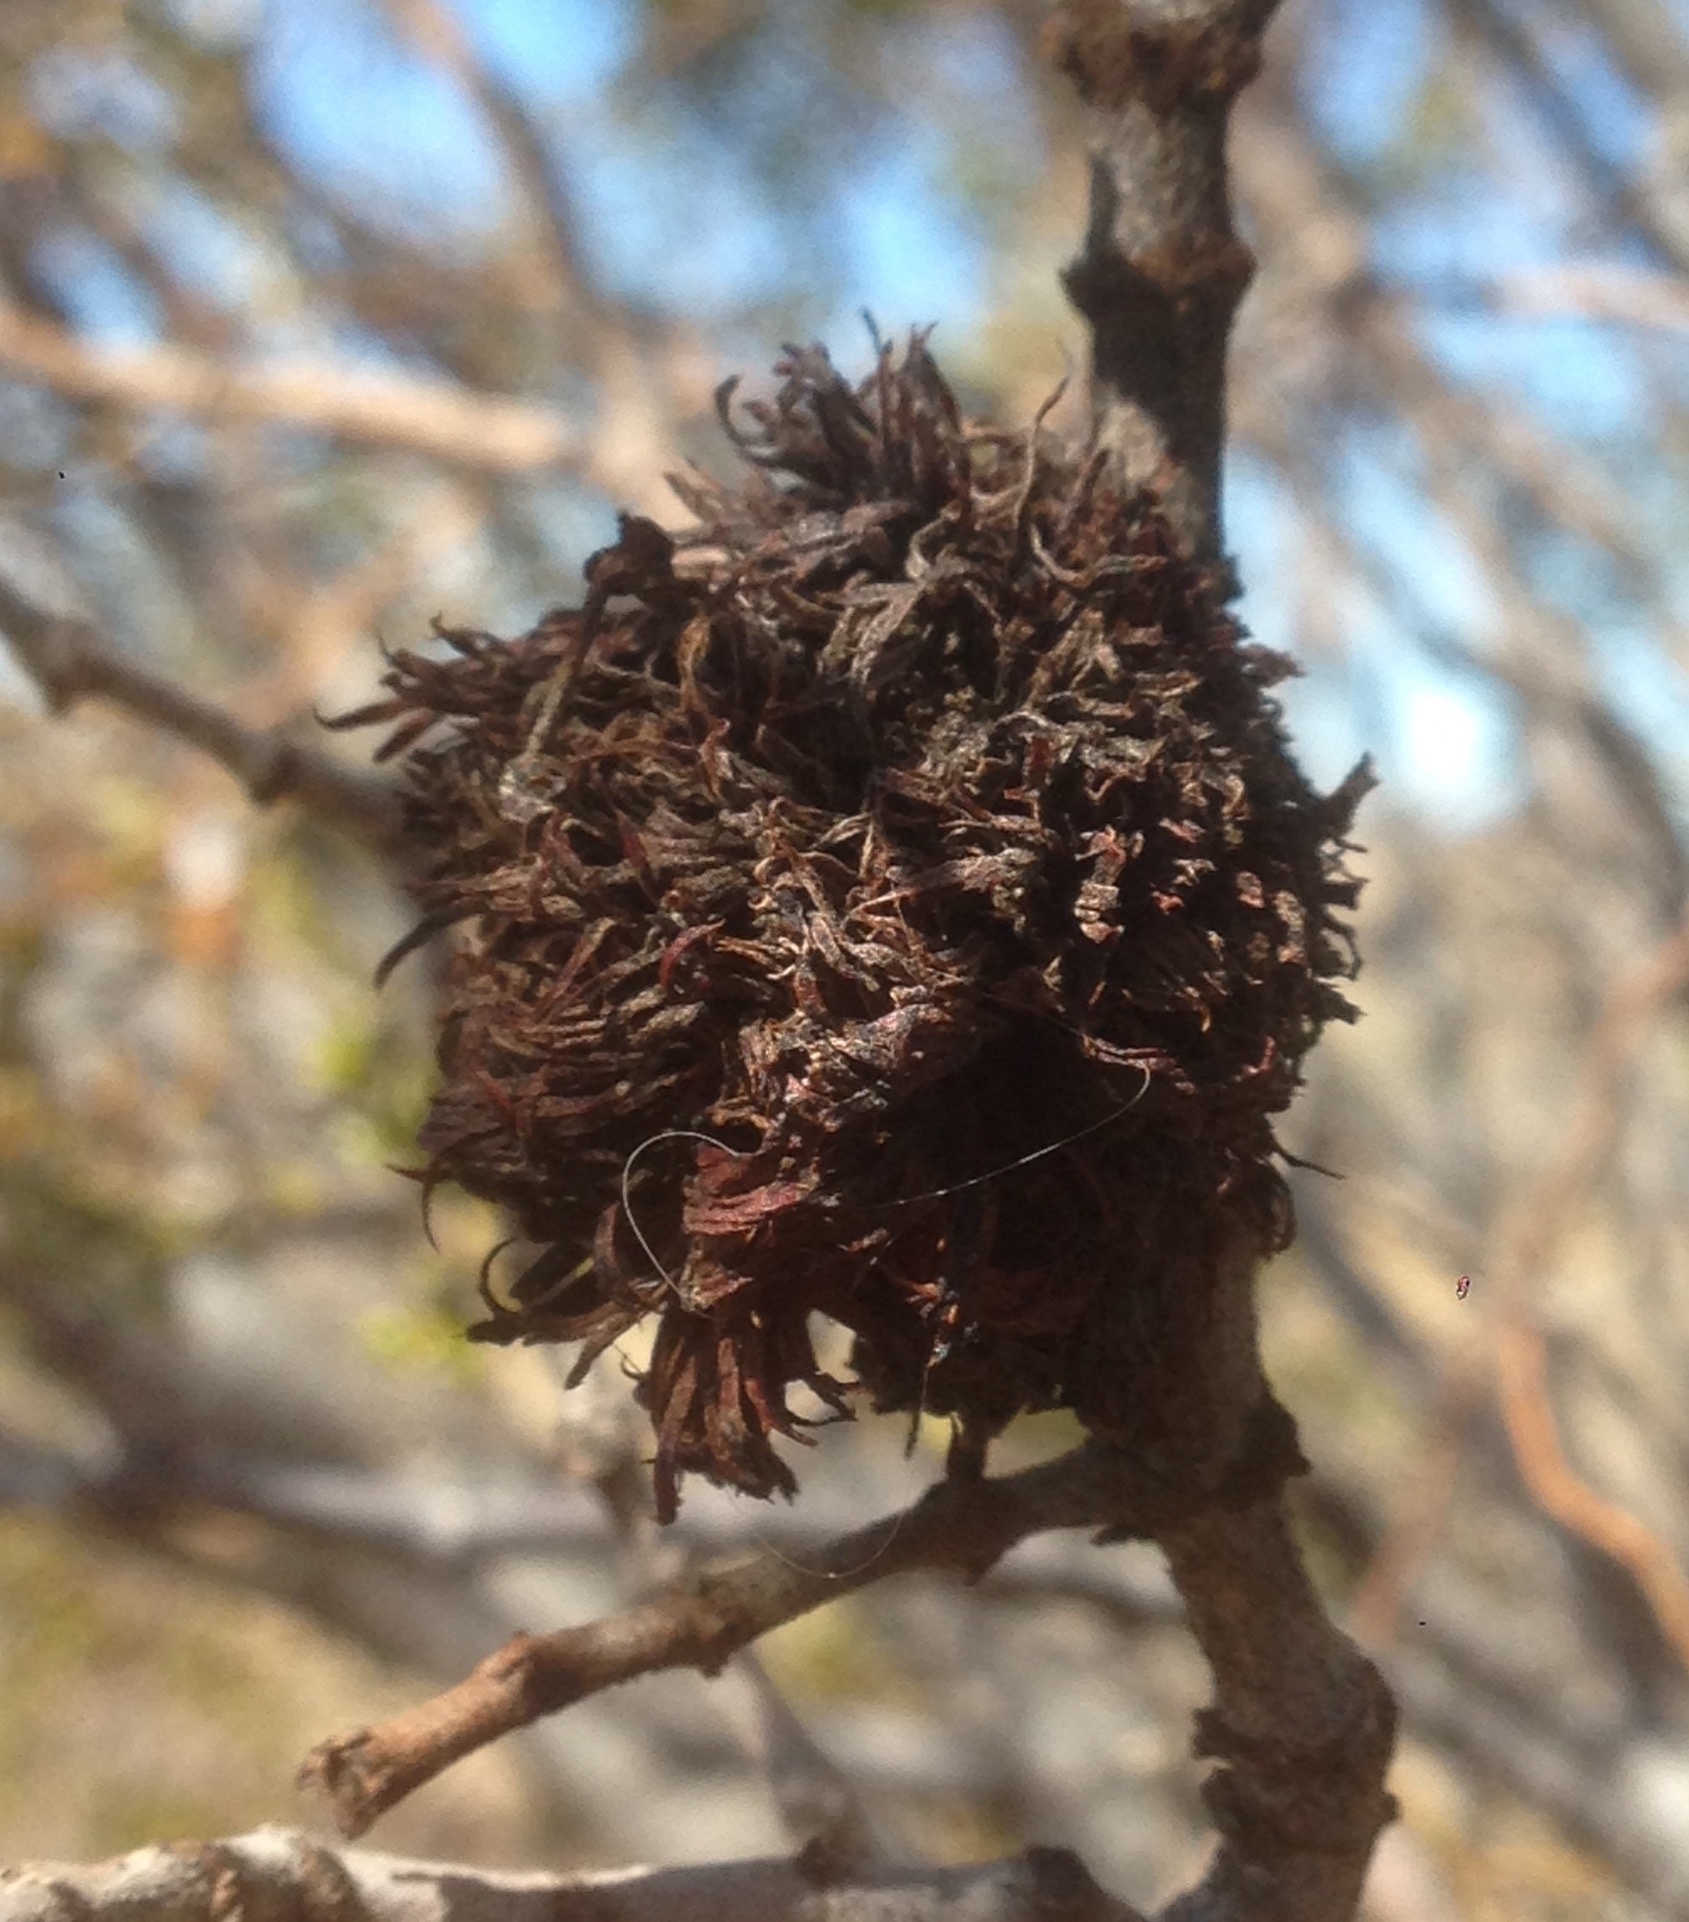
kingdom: Animalia
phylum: Arthropoda
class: Insecta
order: Diptera
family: Cecidomyiidae
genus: Asphondylia
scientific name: Asphondylia auripila
